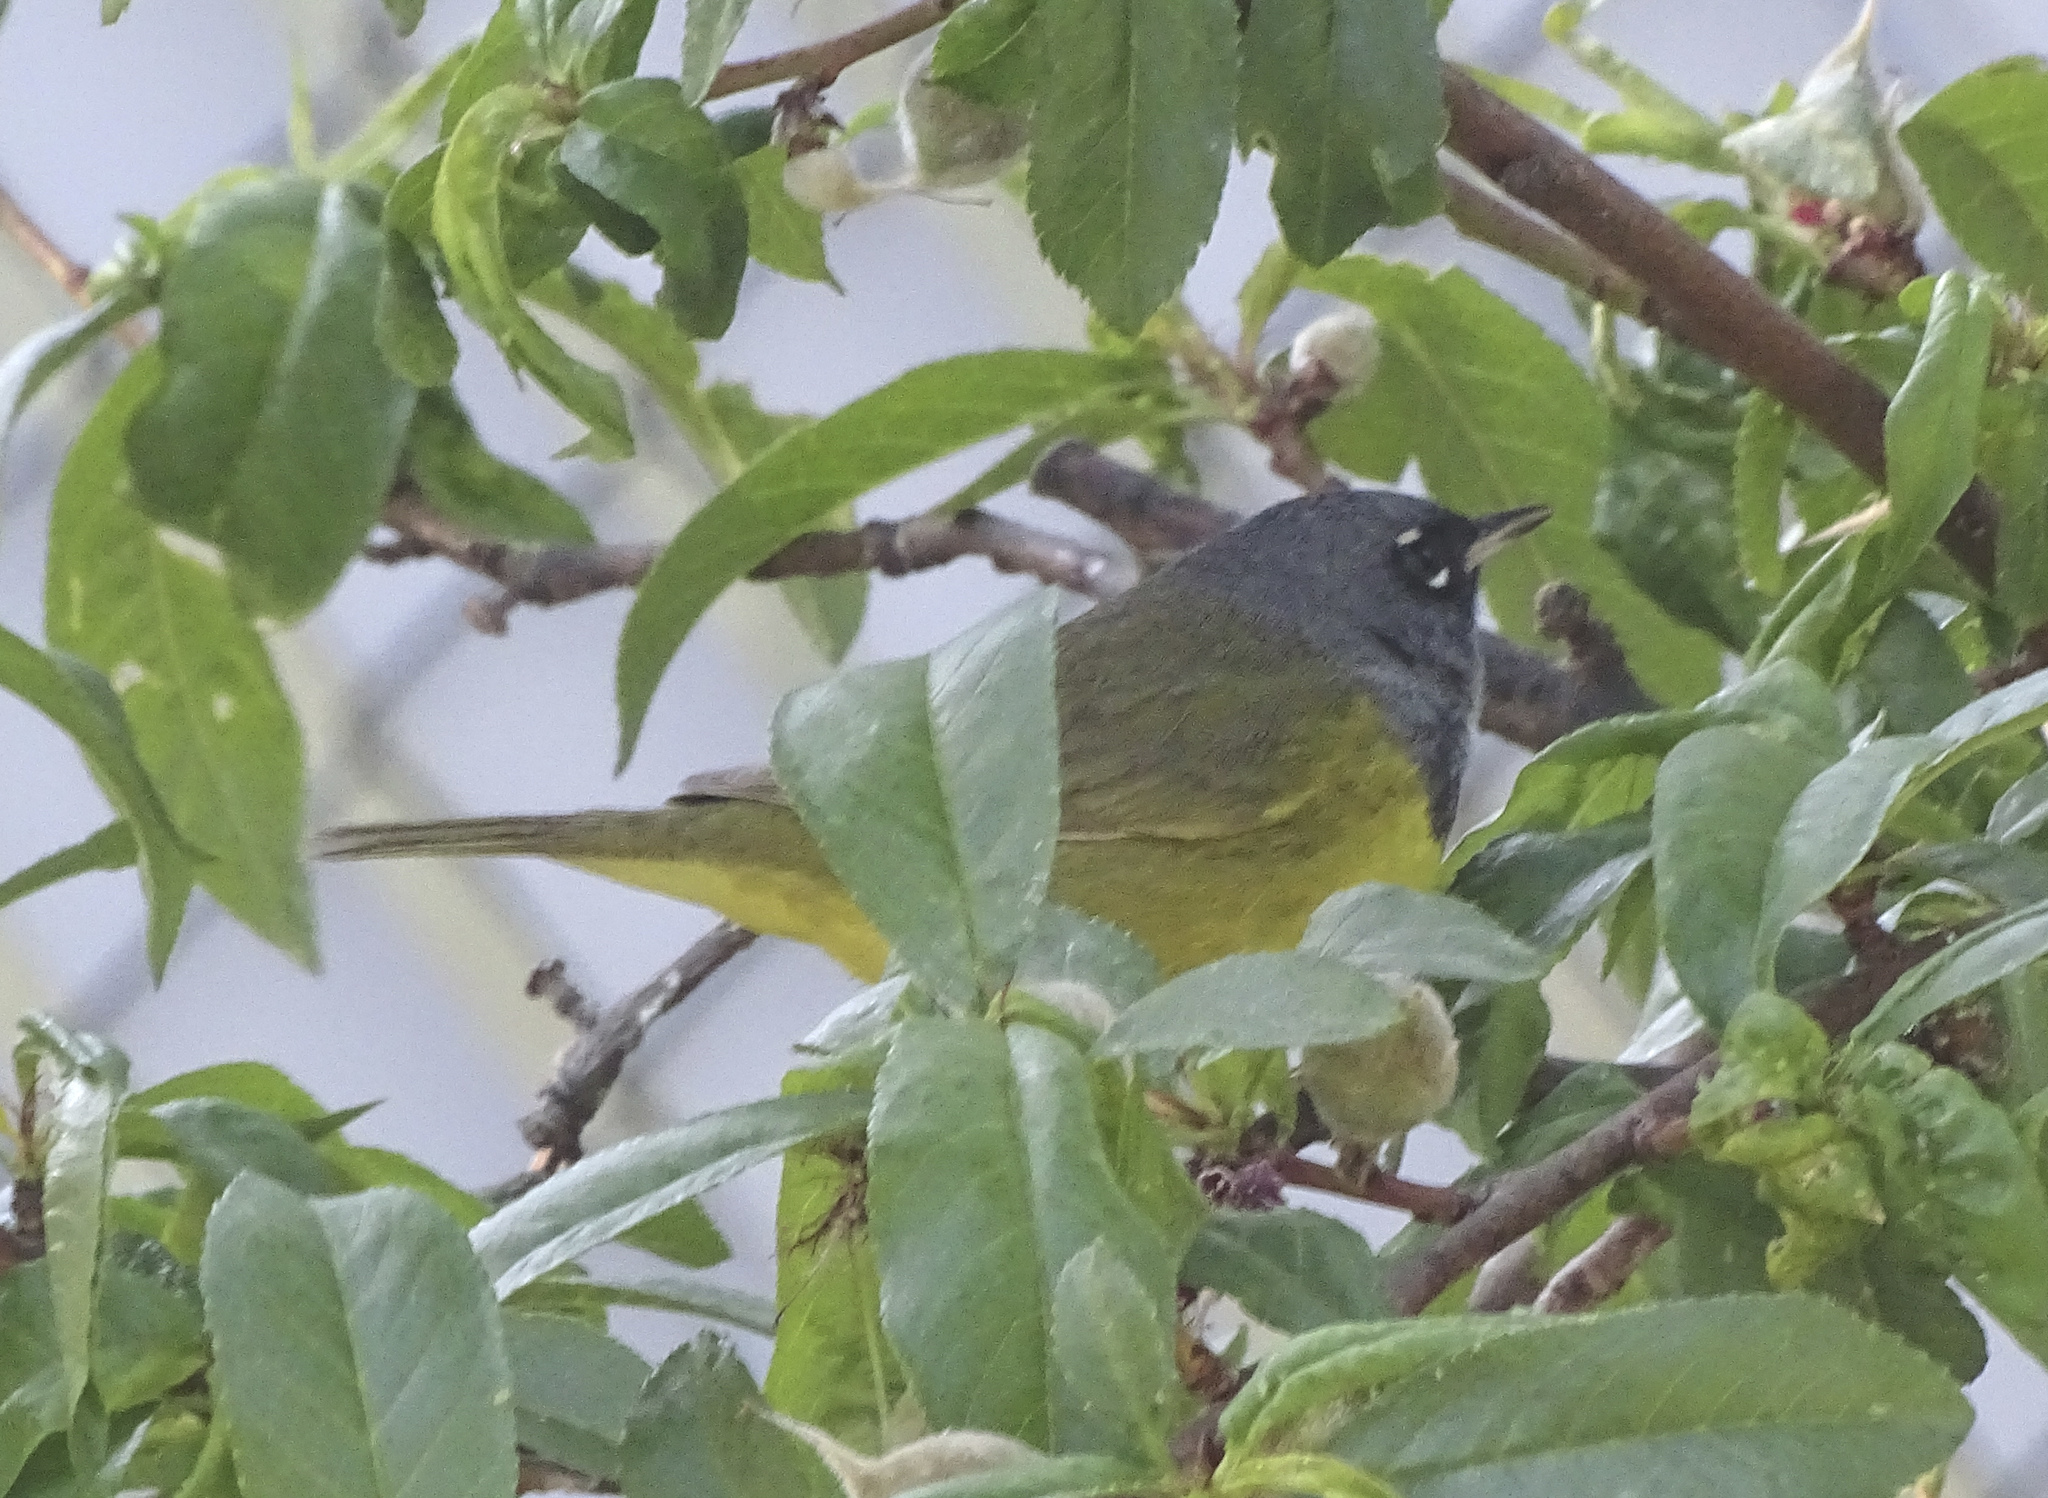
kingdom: Animalia
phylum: Chordata
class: Aves
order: Passeriformes
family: Parulidae
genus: Geothlypis
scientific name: Geothlypis tolmiei
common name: Macgillivray's warbler
